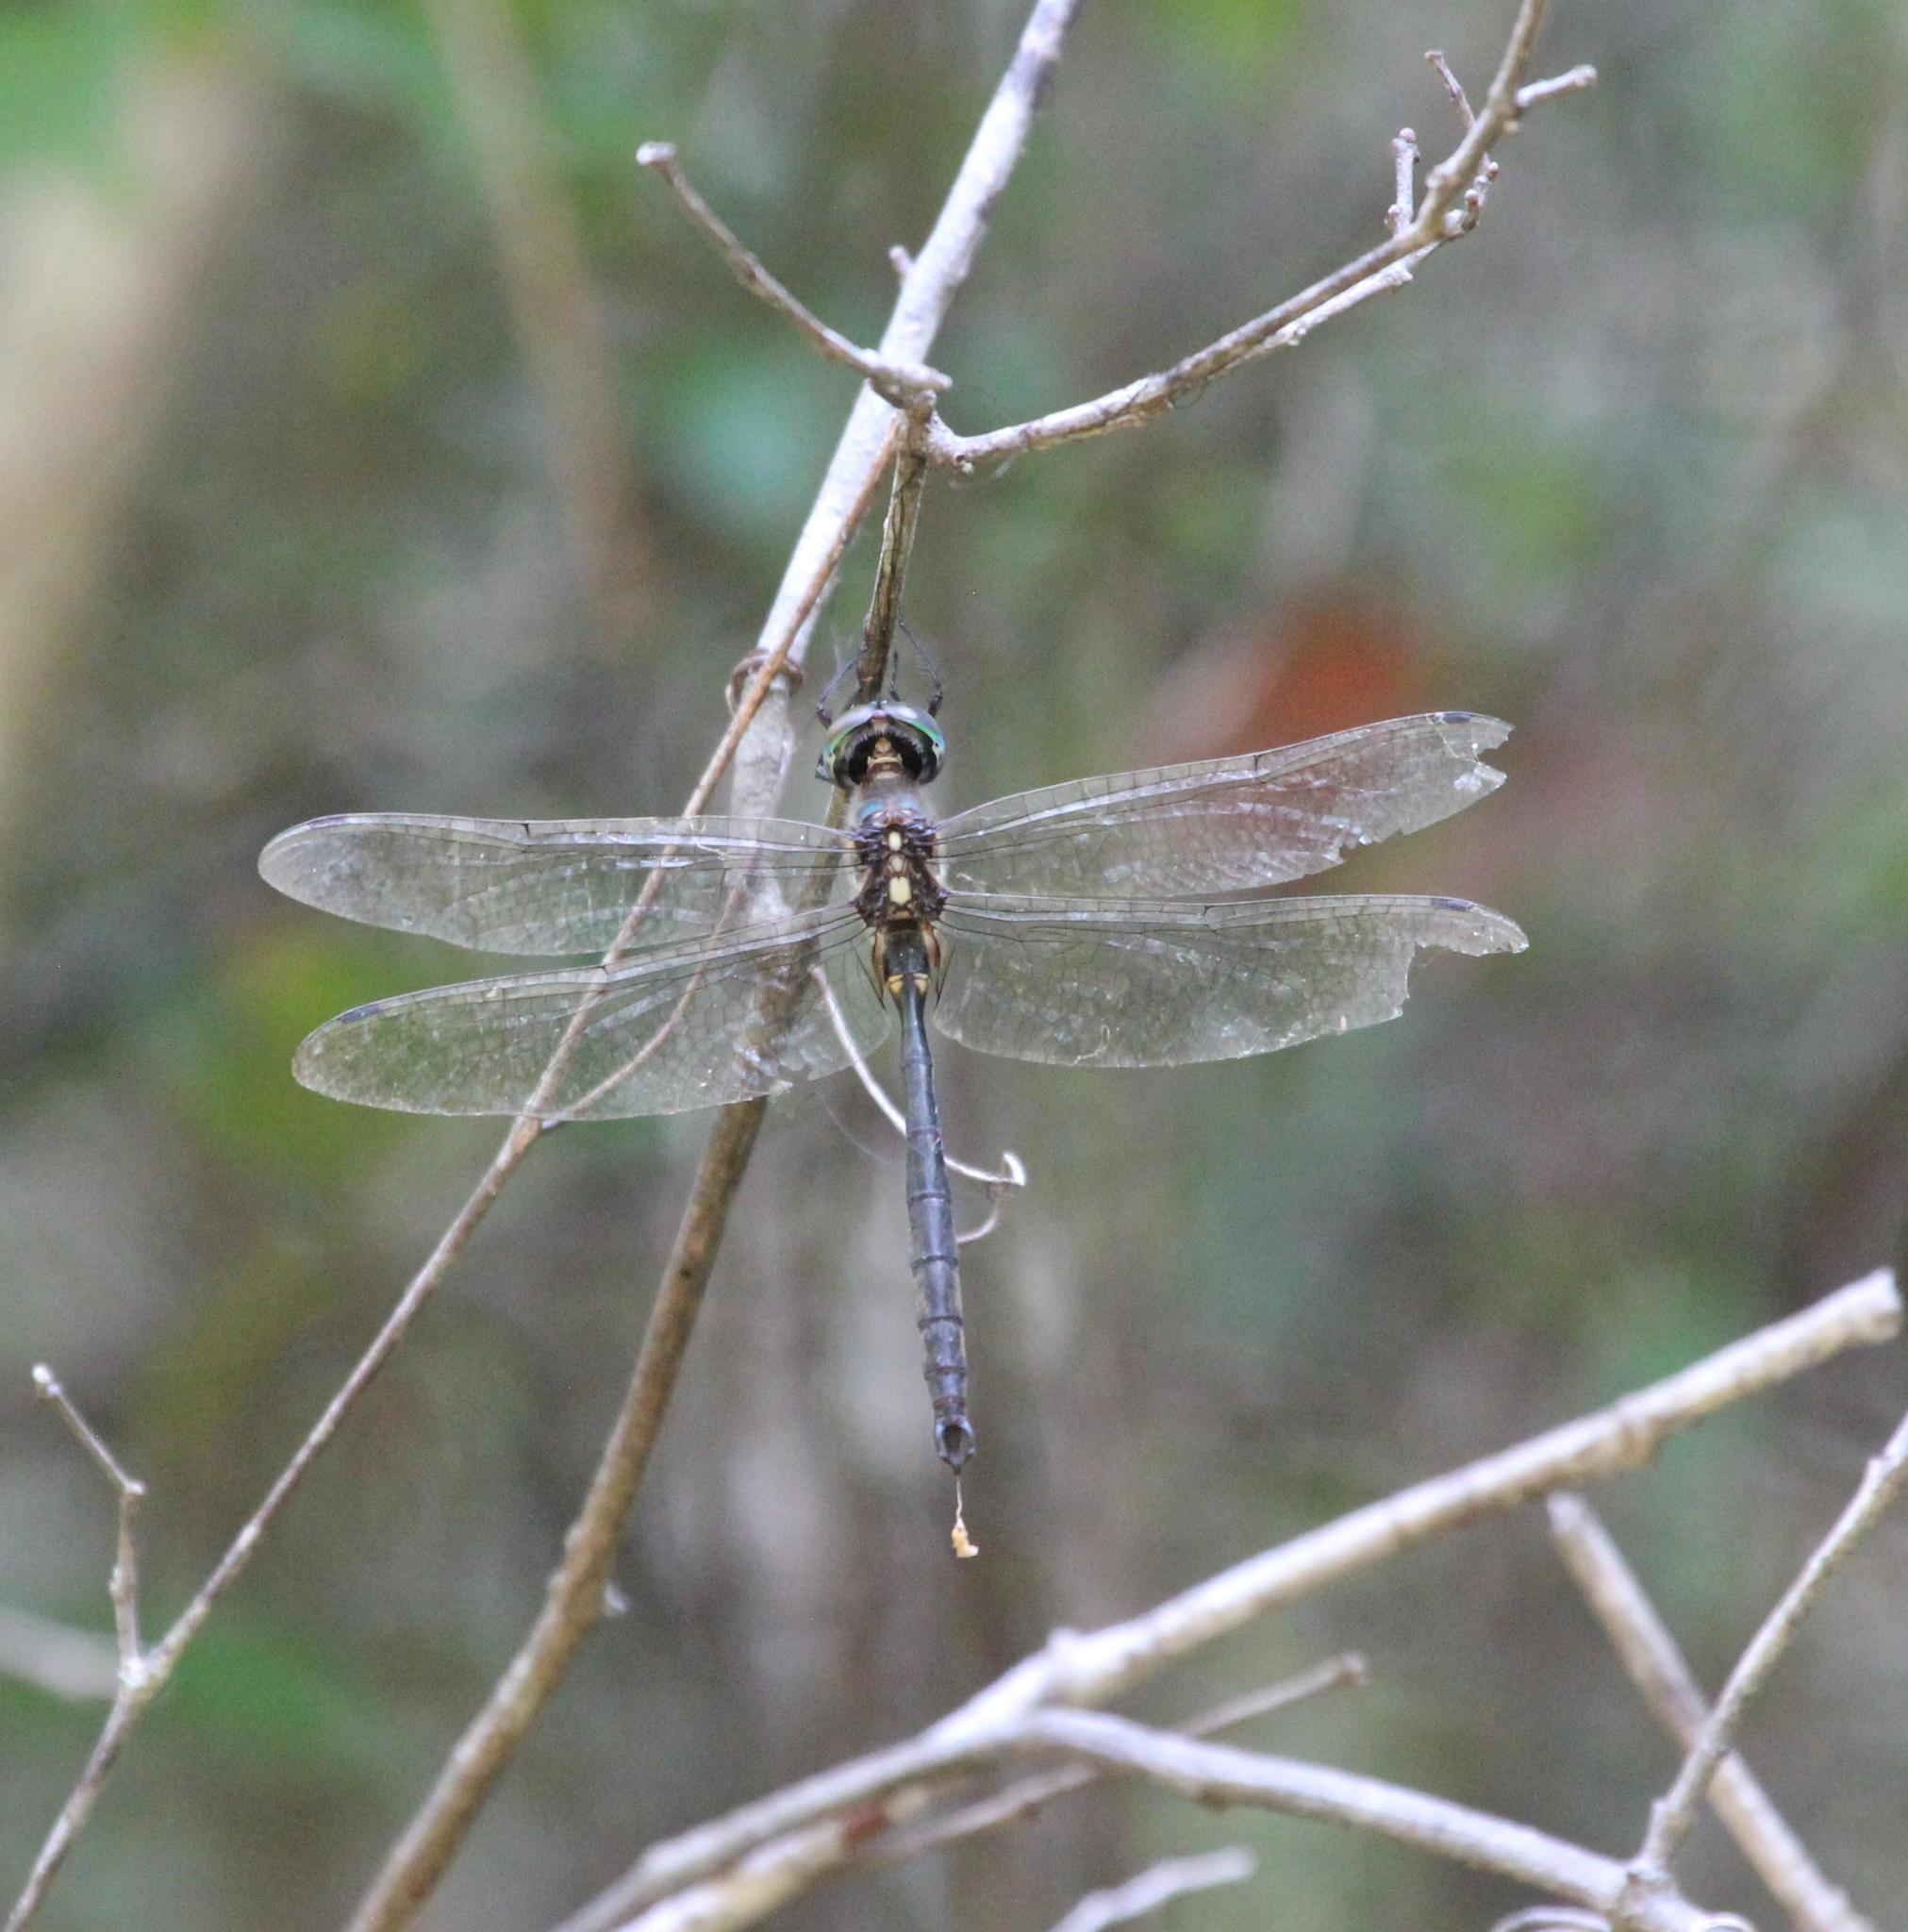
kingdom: Animalia
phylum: Arthropoda
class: Insecta
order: Odonata
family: Corduliidae
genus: Somatochlora
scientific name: Somatochlora tenebrosa
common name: Clamp-tipped emerald
